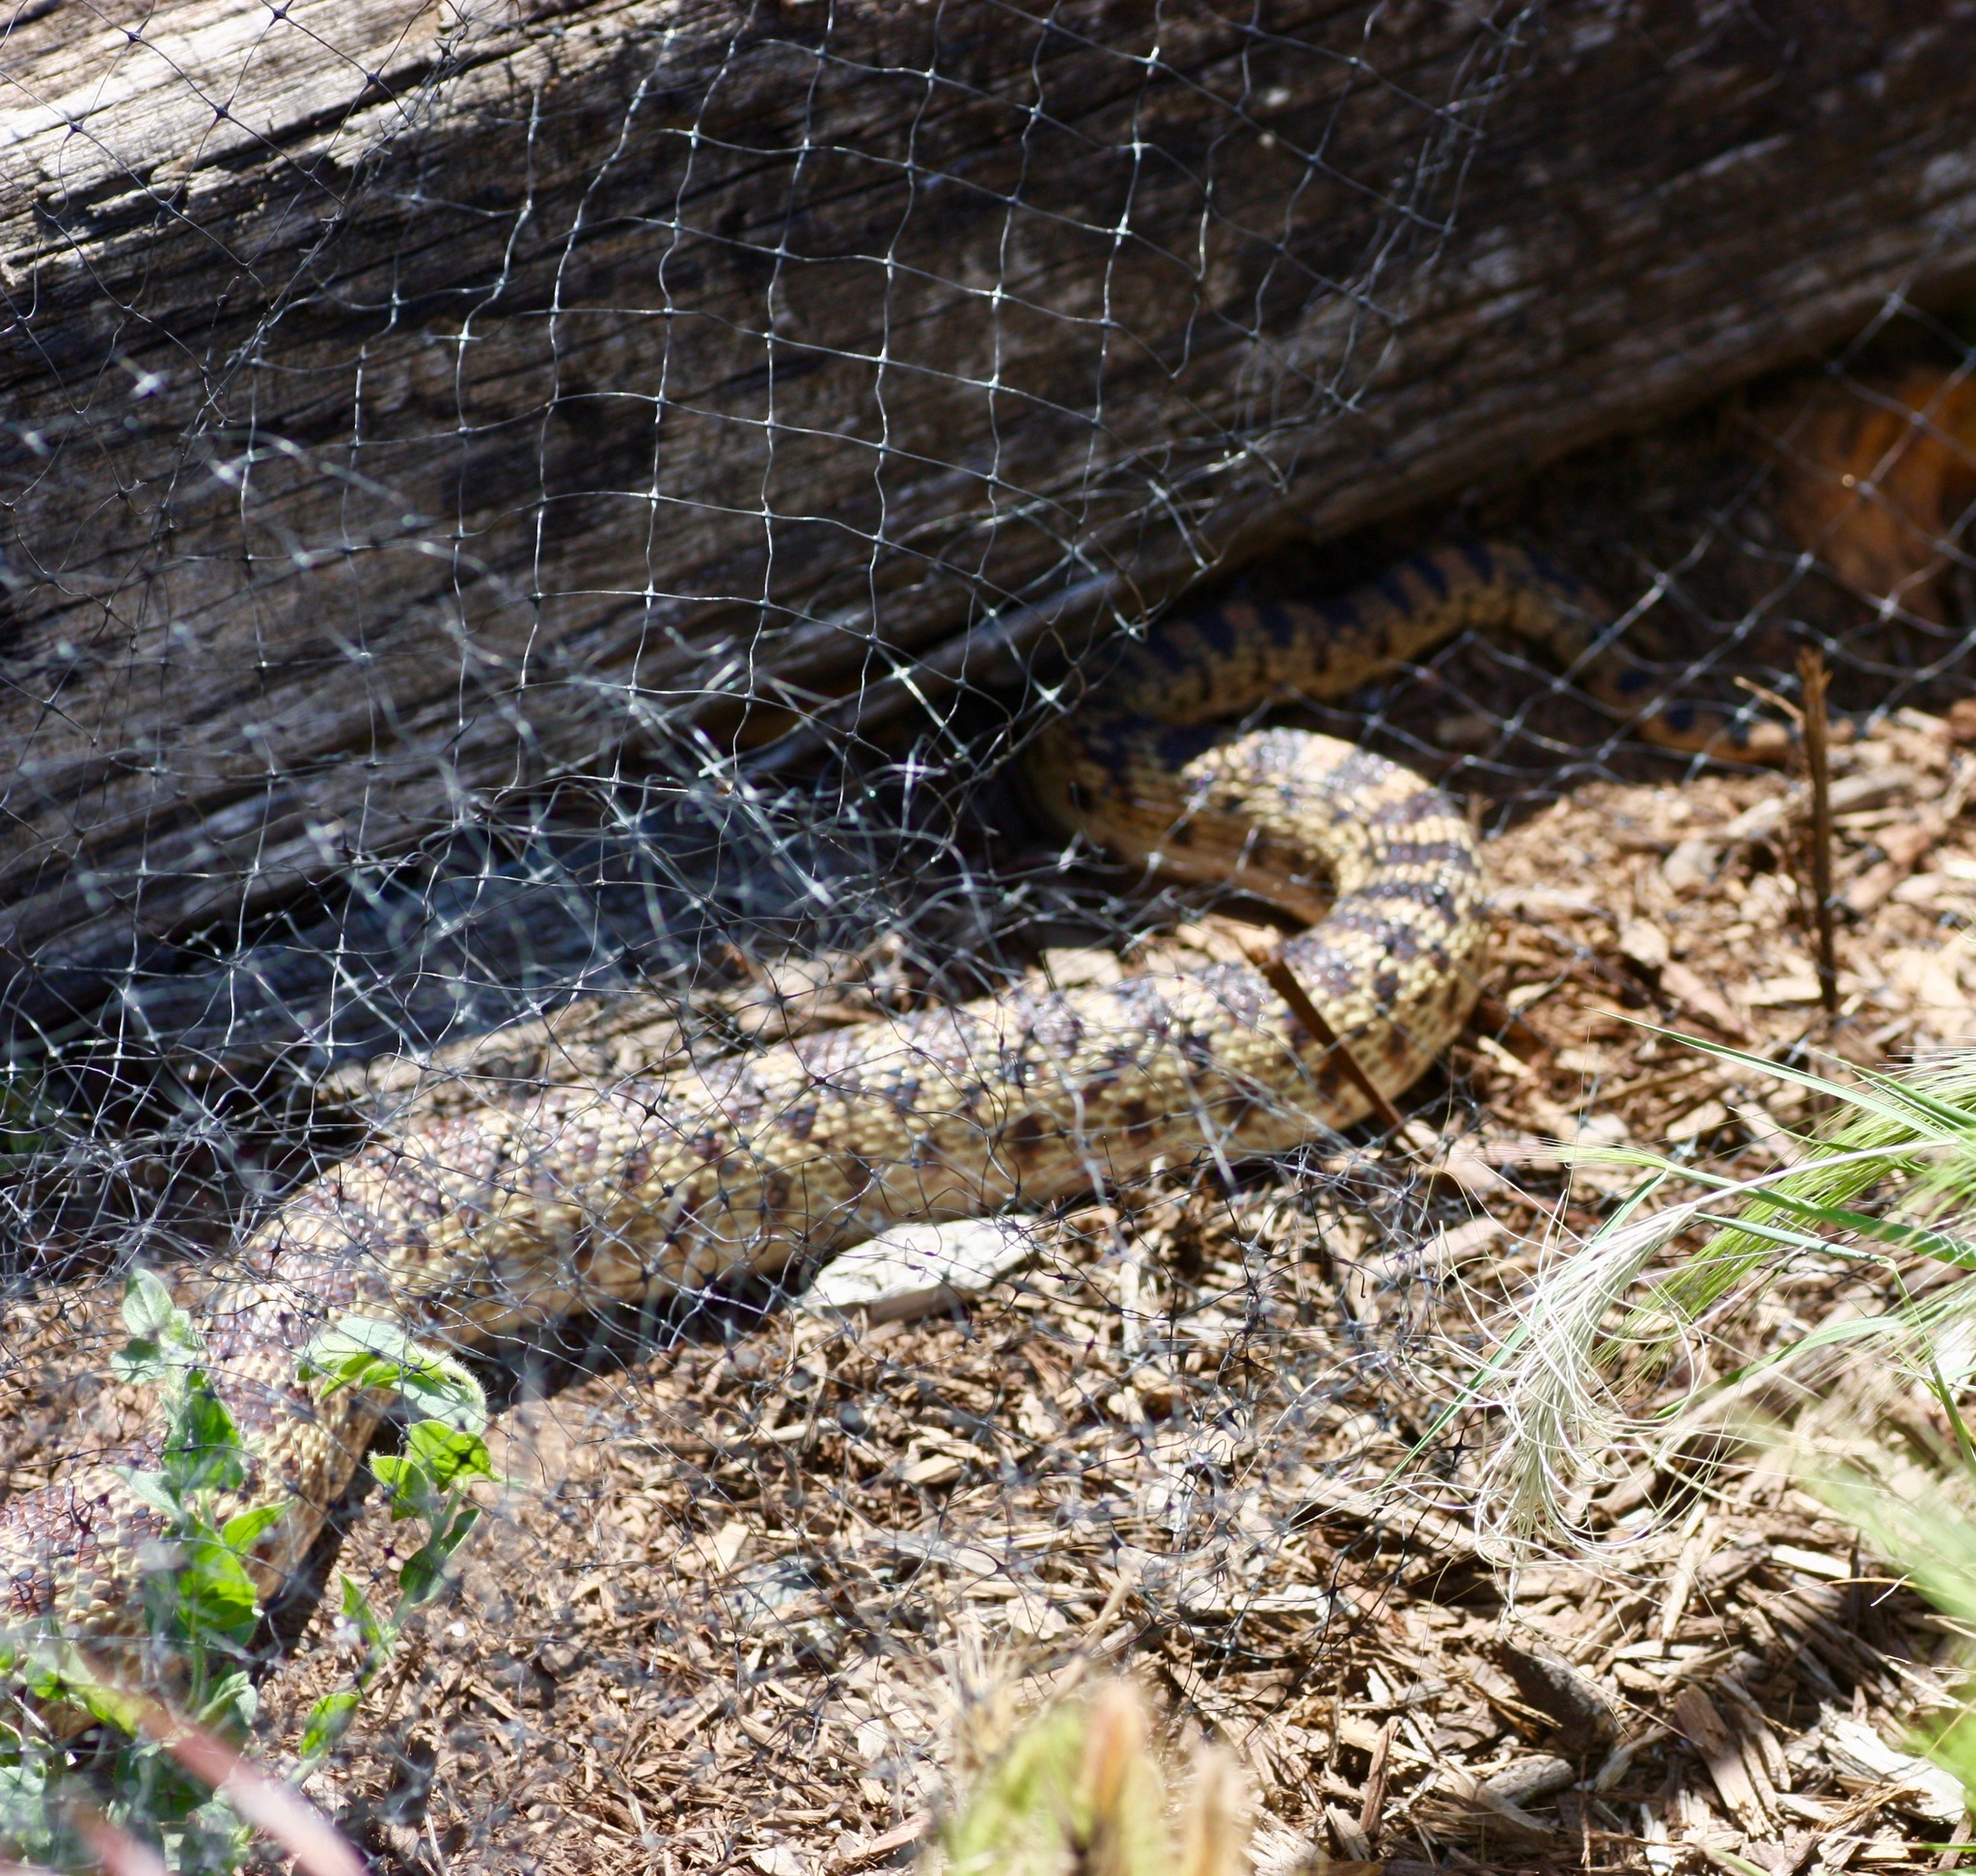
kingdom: Animalia
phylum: Chordata
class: Squamata
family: Colubridae
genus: Pituophis
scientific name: Pituophis catenifer
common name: Gopher snake
